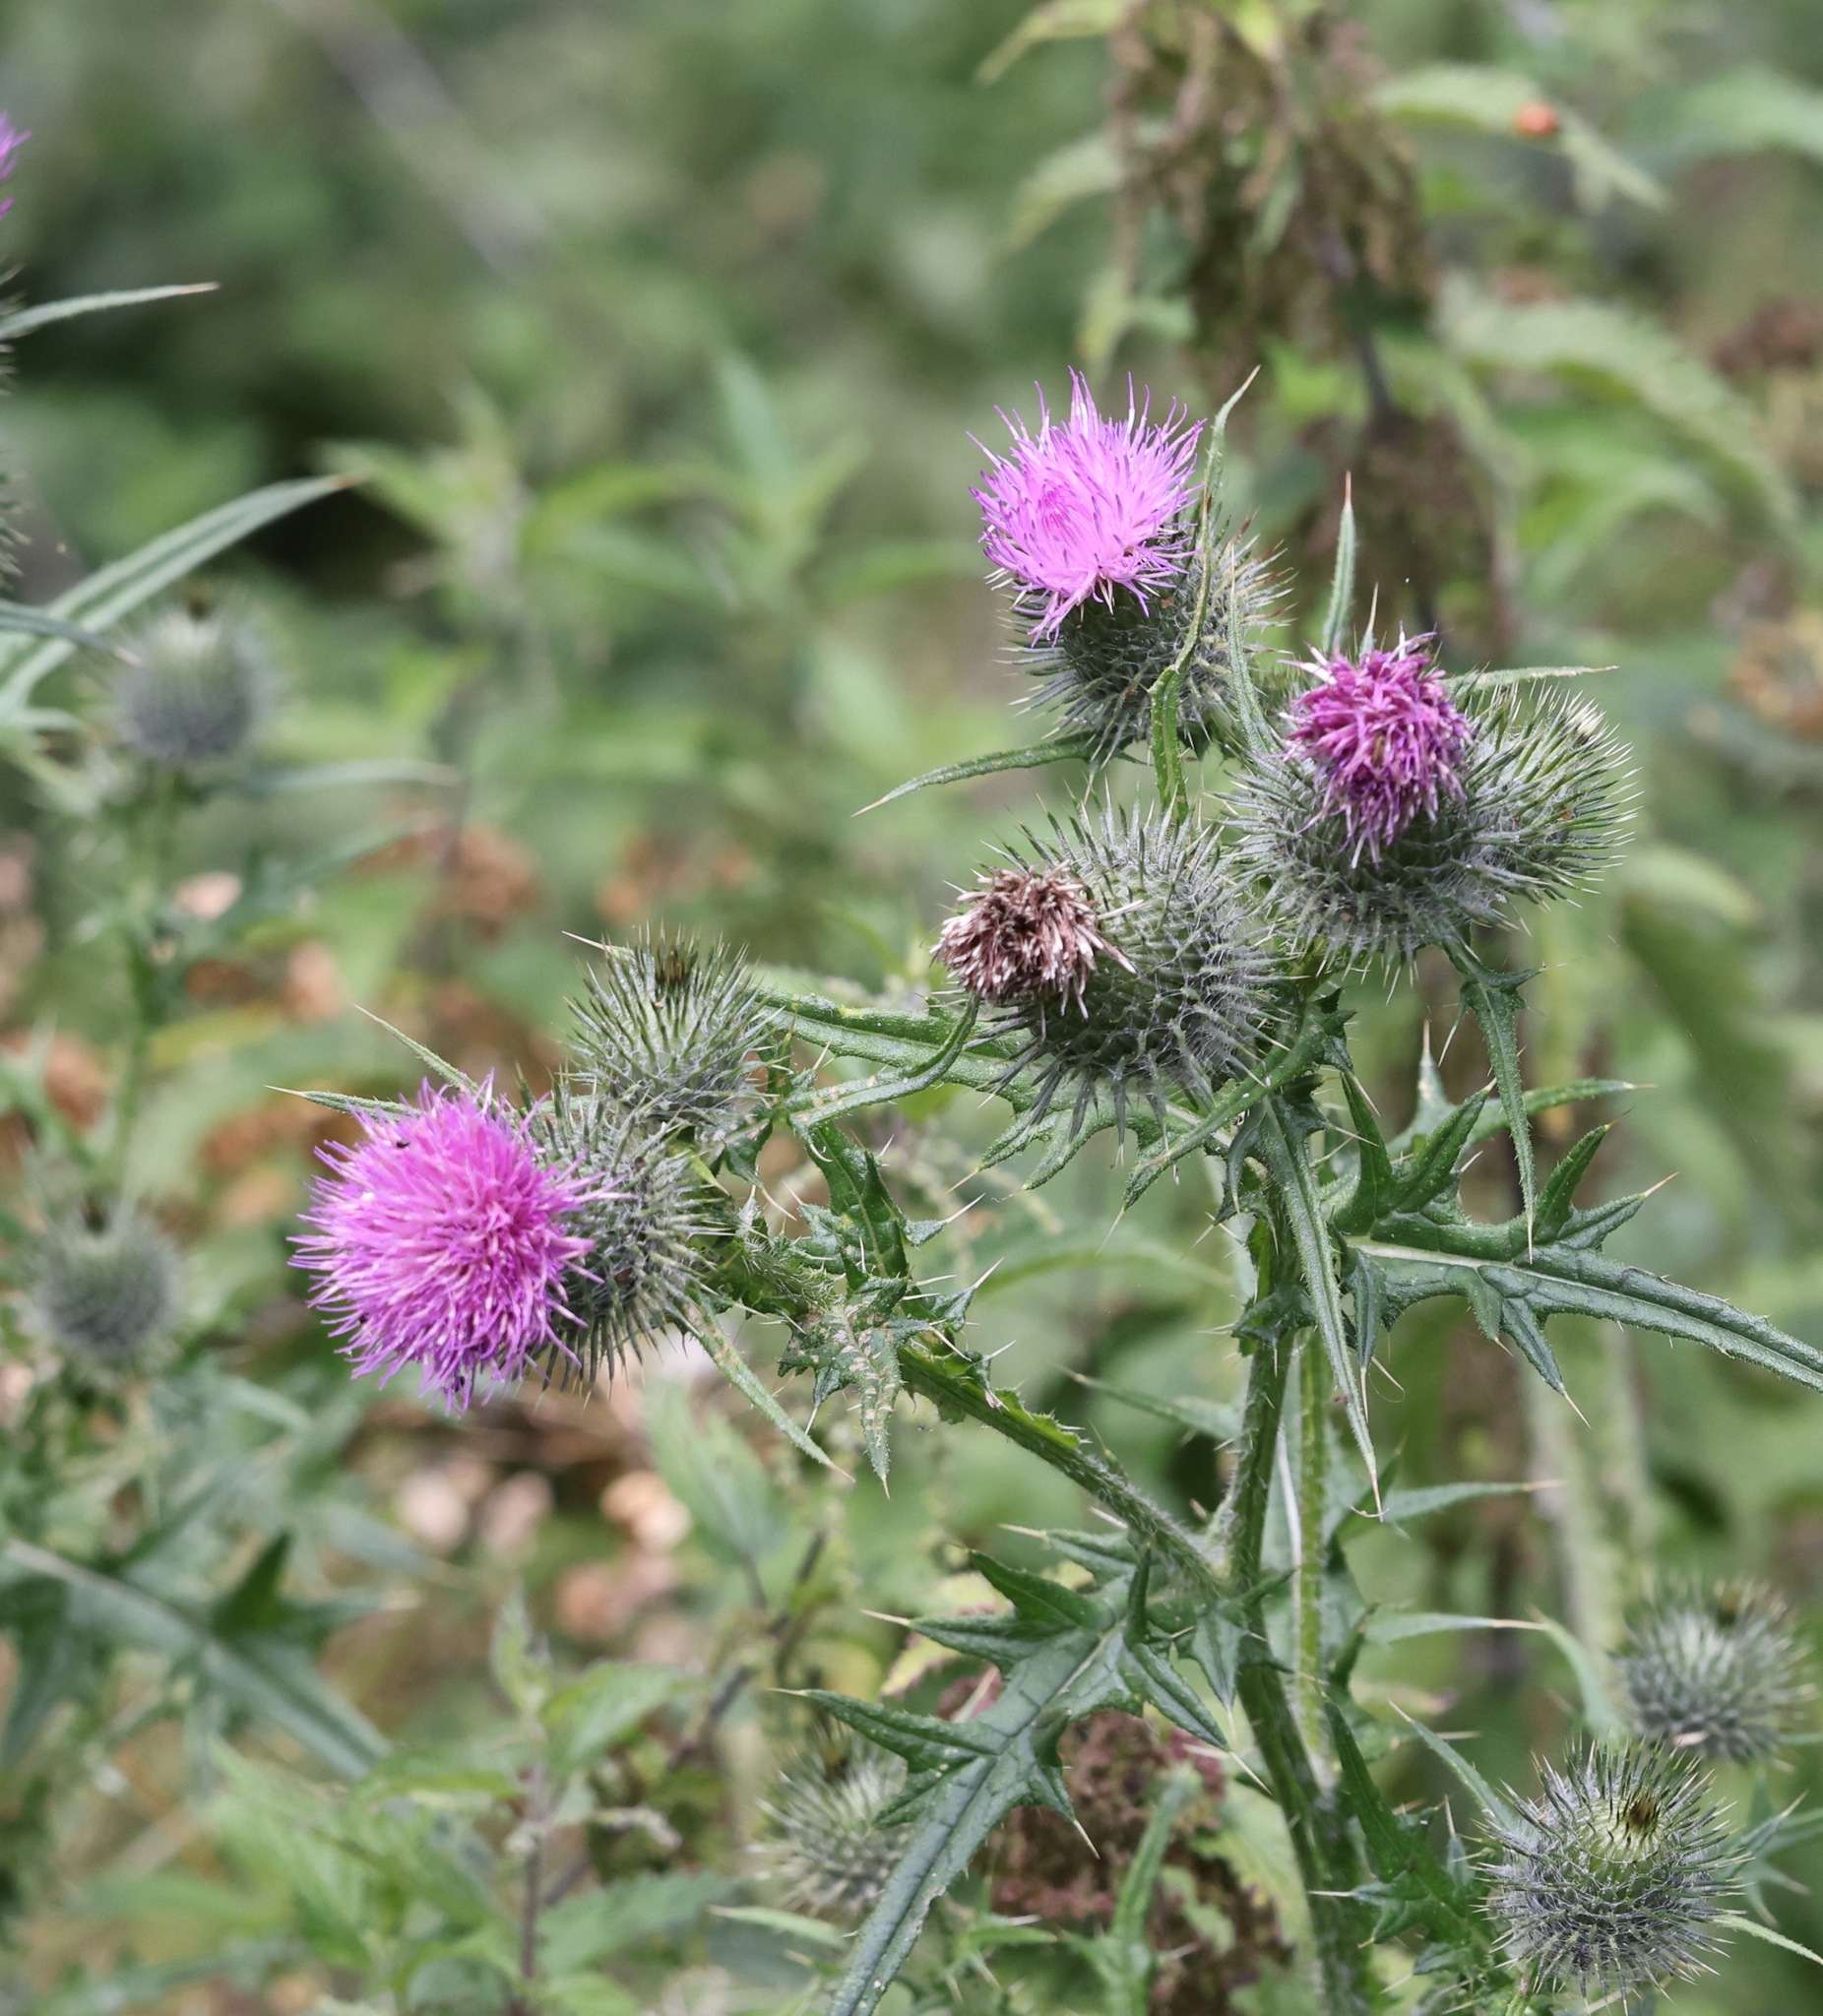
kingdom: Plantae
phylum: Tracheophyta
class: Magnoliopsida
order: Asterales
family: Asteraceae
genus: Cirsium
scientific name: Cirsium vulgare
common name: Bull thistle
